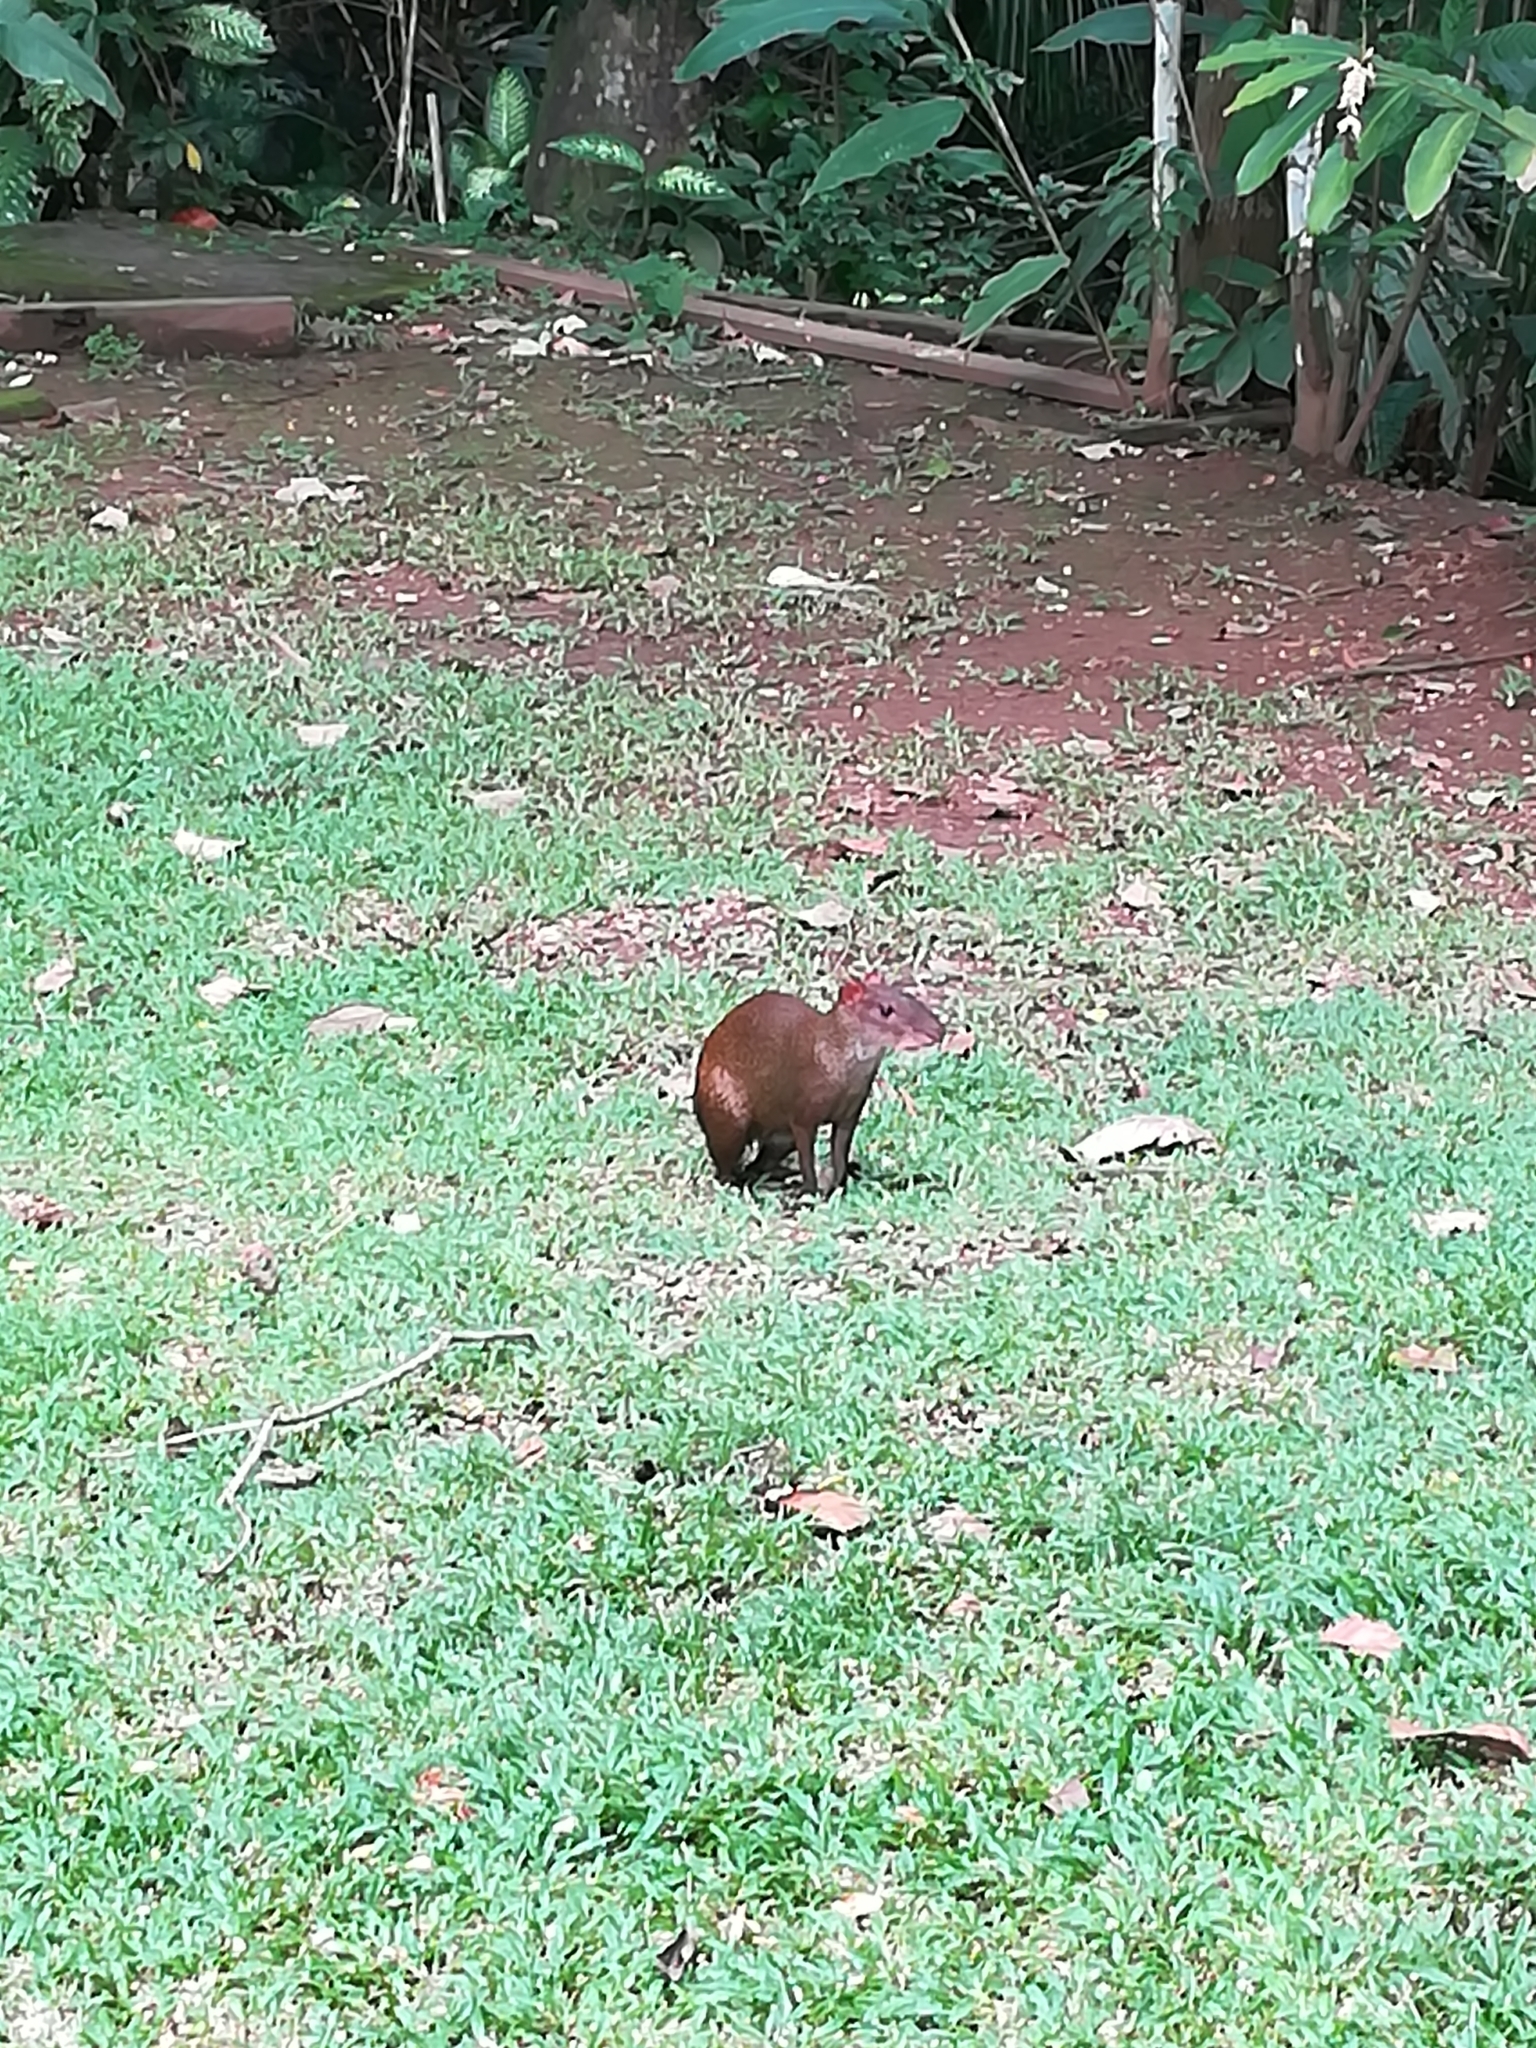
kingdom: Animalia
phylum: Chordata
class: Mammalia
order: Rodentia
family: Dasyproctidae
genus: Dasyprocta
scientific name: Dasyprocta punctata
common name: Central american agouti
